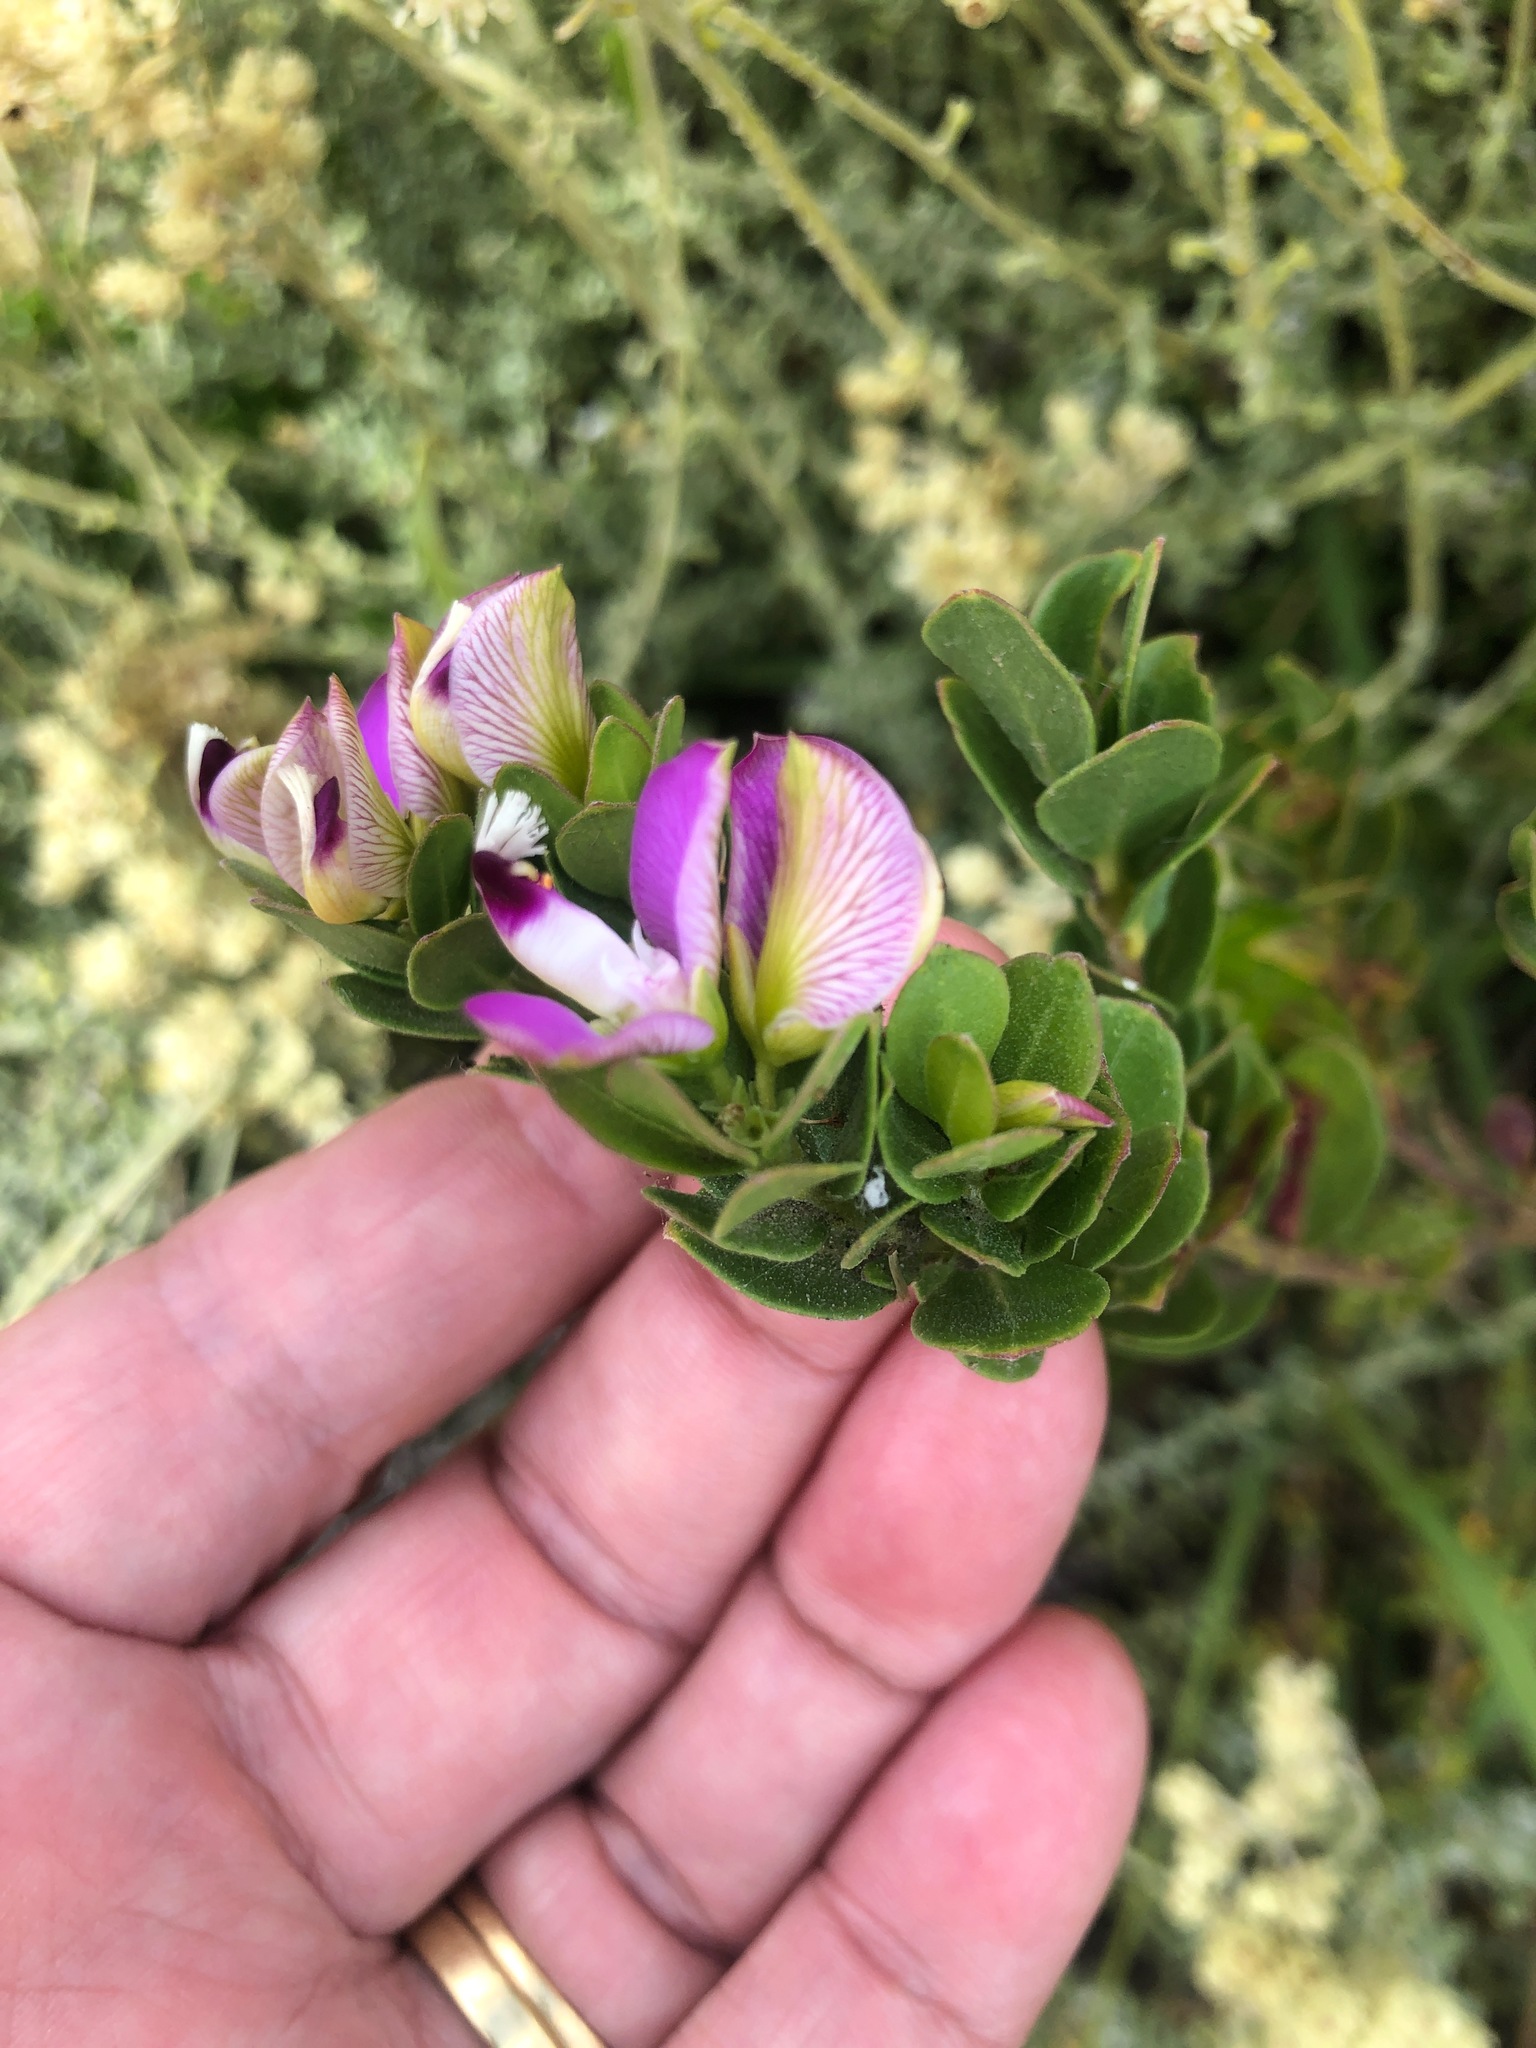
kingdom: Plantae
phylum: Tracheophyta
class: Magnoliopsida
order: Fabales
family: Polygalaceae
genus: Polygala
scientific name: Polygala myrtifolia
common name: Myrtle-leaf milkwort
